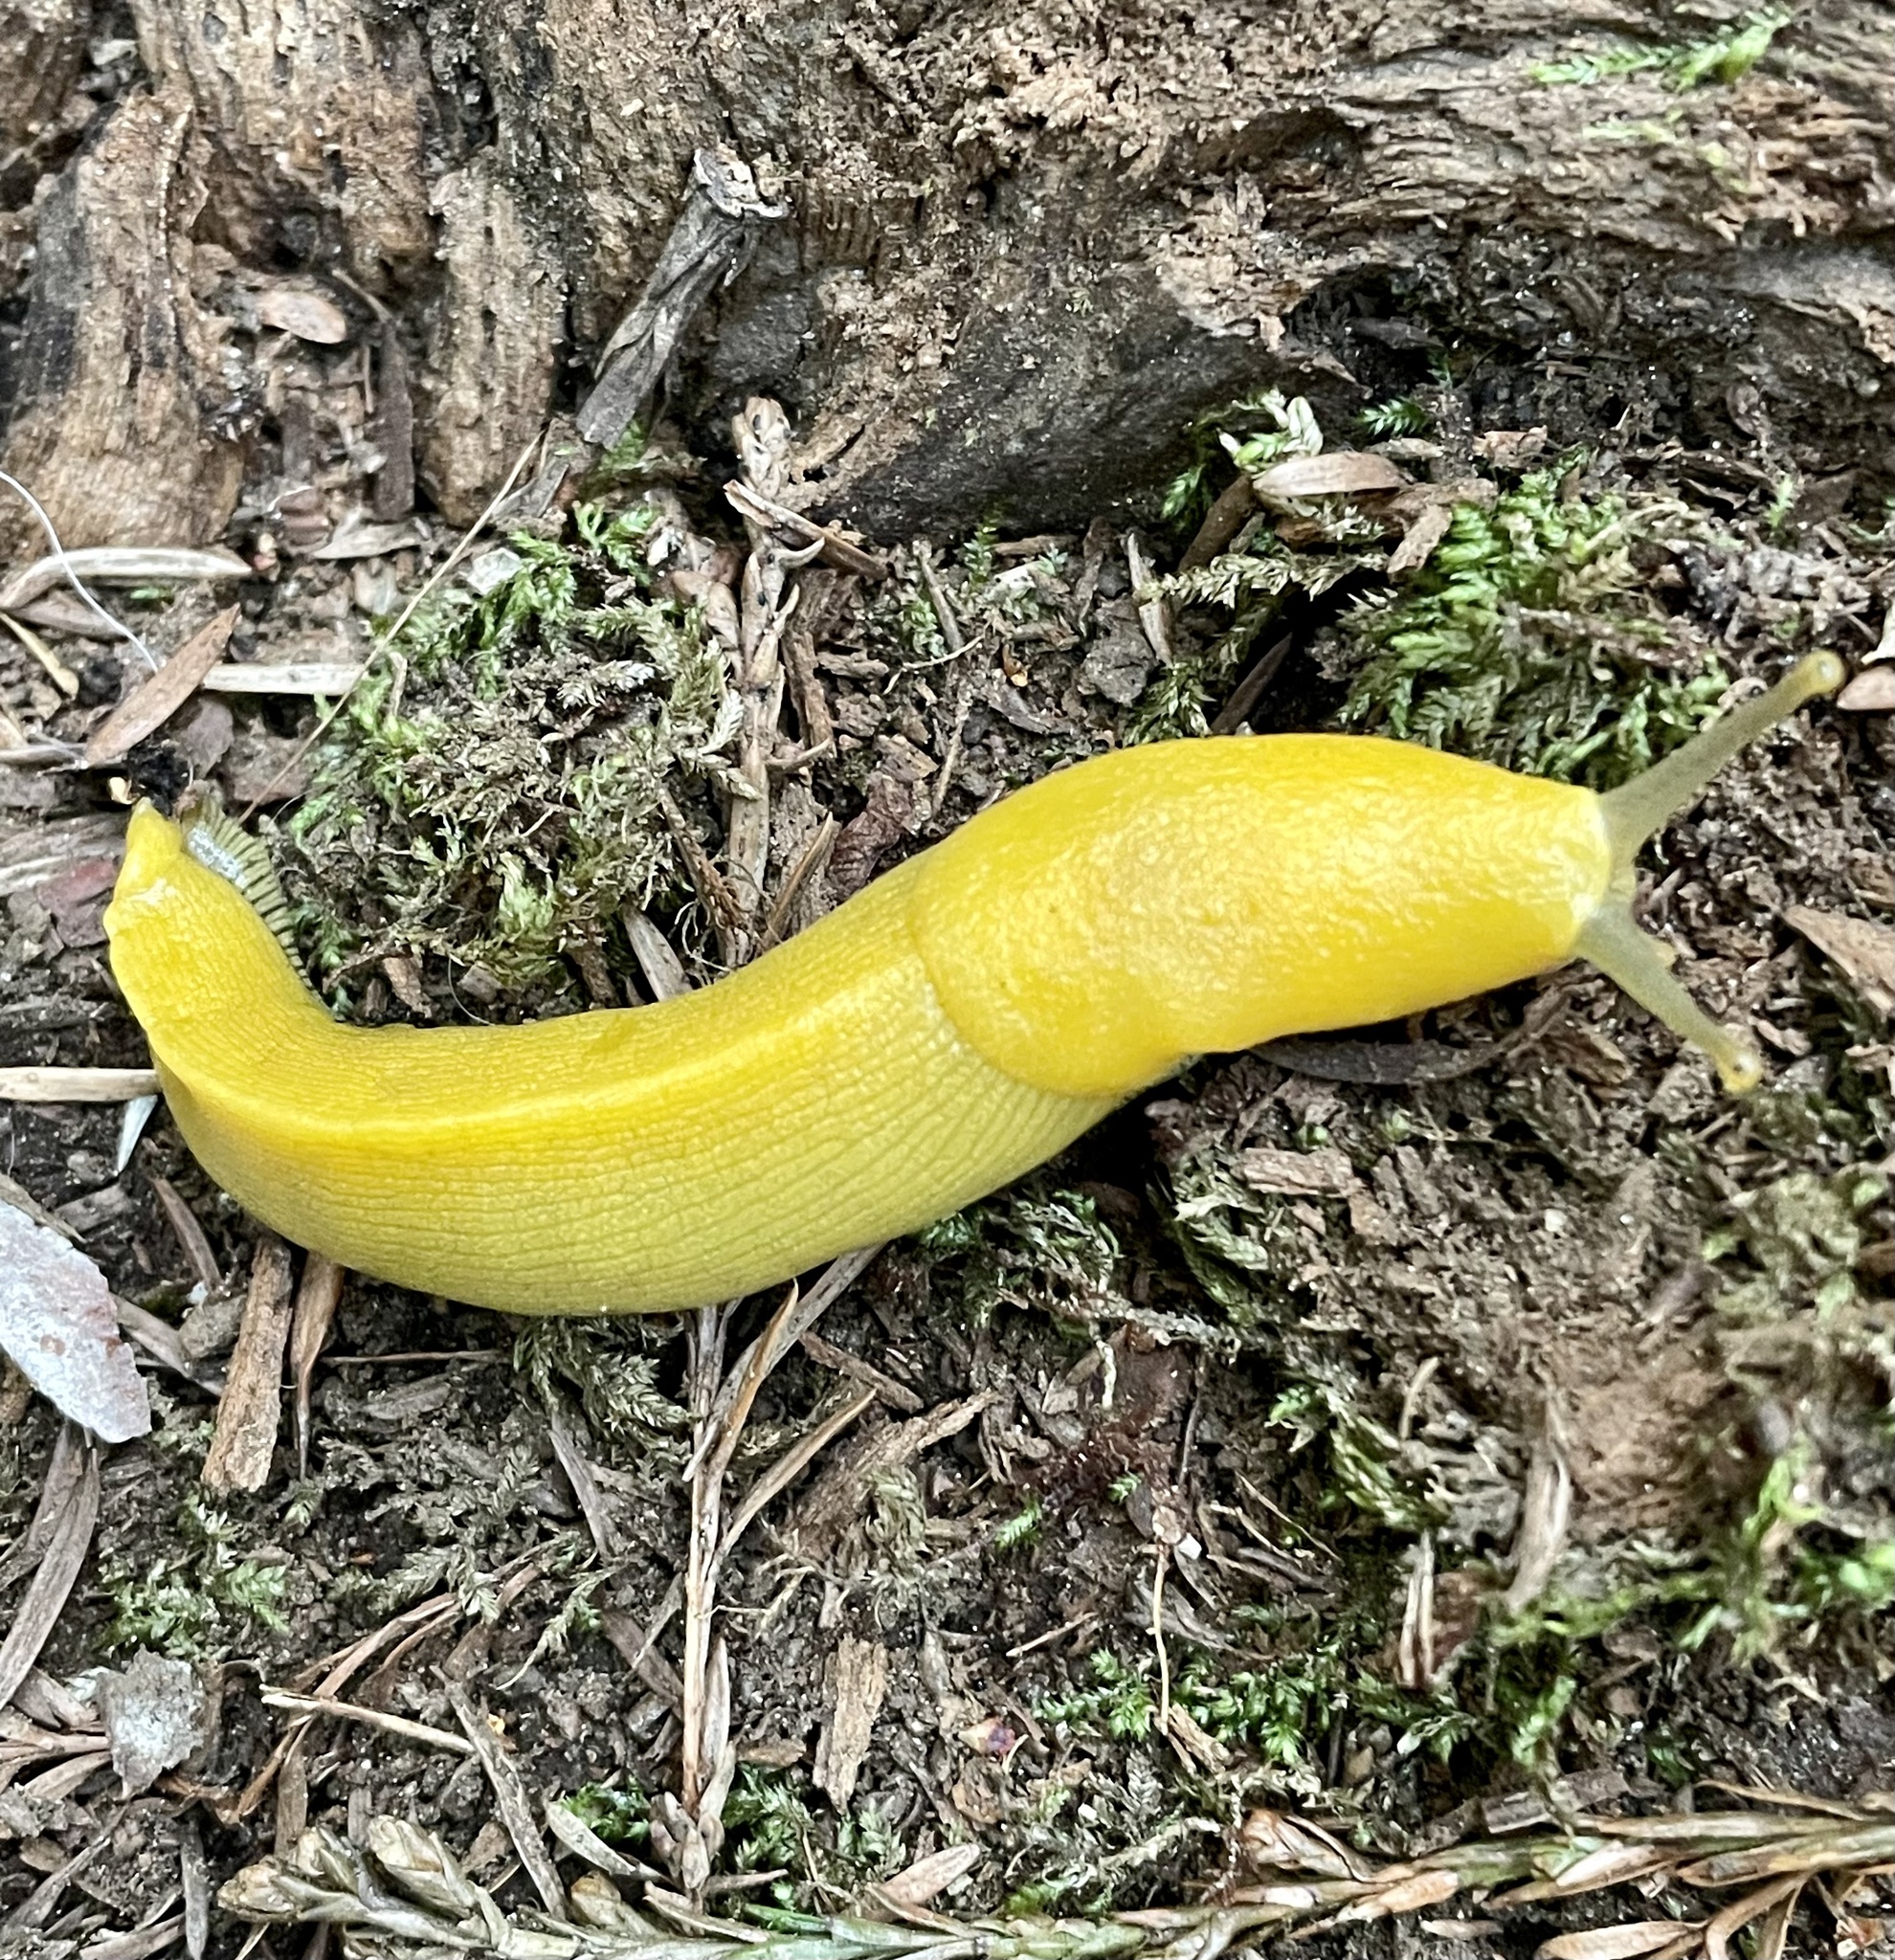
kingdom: Animalia
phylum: Mollusca
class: Gastropoda
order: Stylommatophora
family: Ariolimacidae
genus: Ariolimax
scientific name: Ariolimax dolichophallus
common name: Slender banana slug
